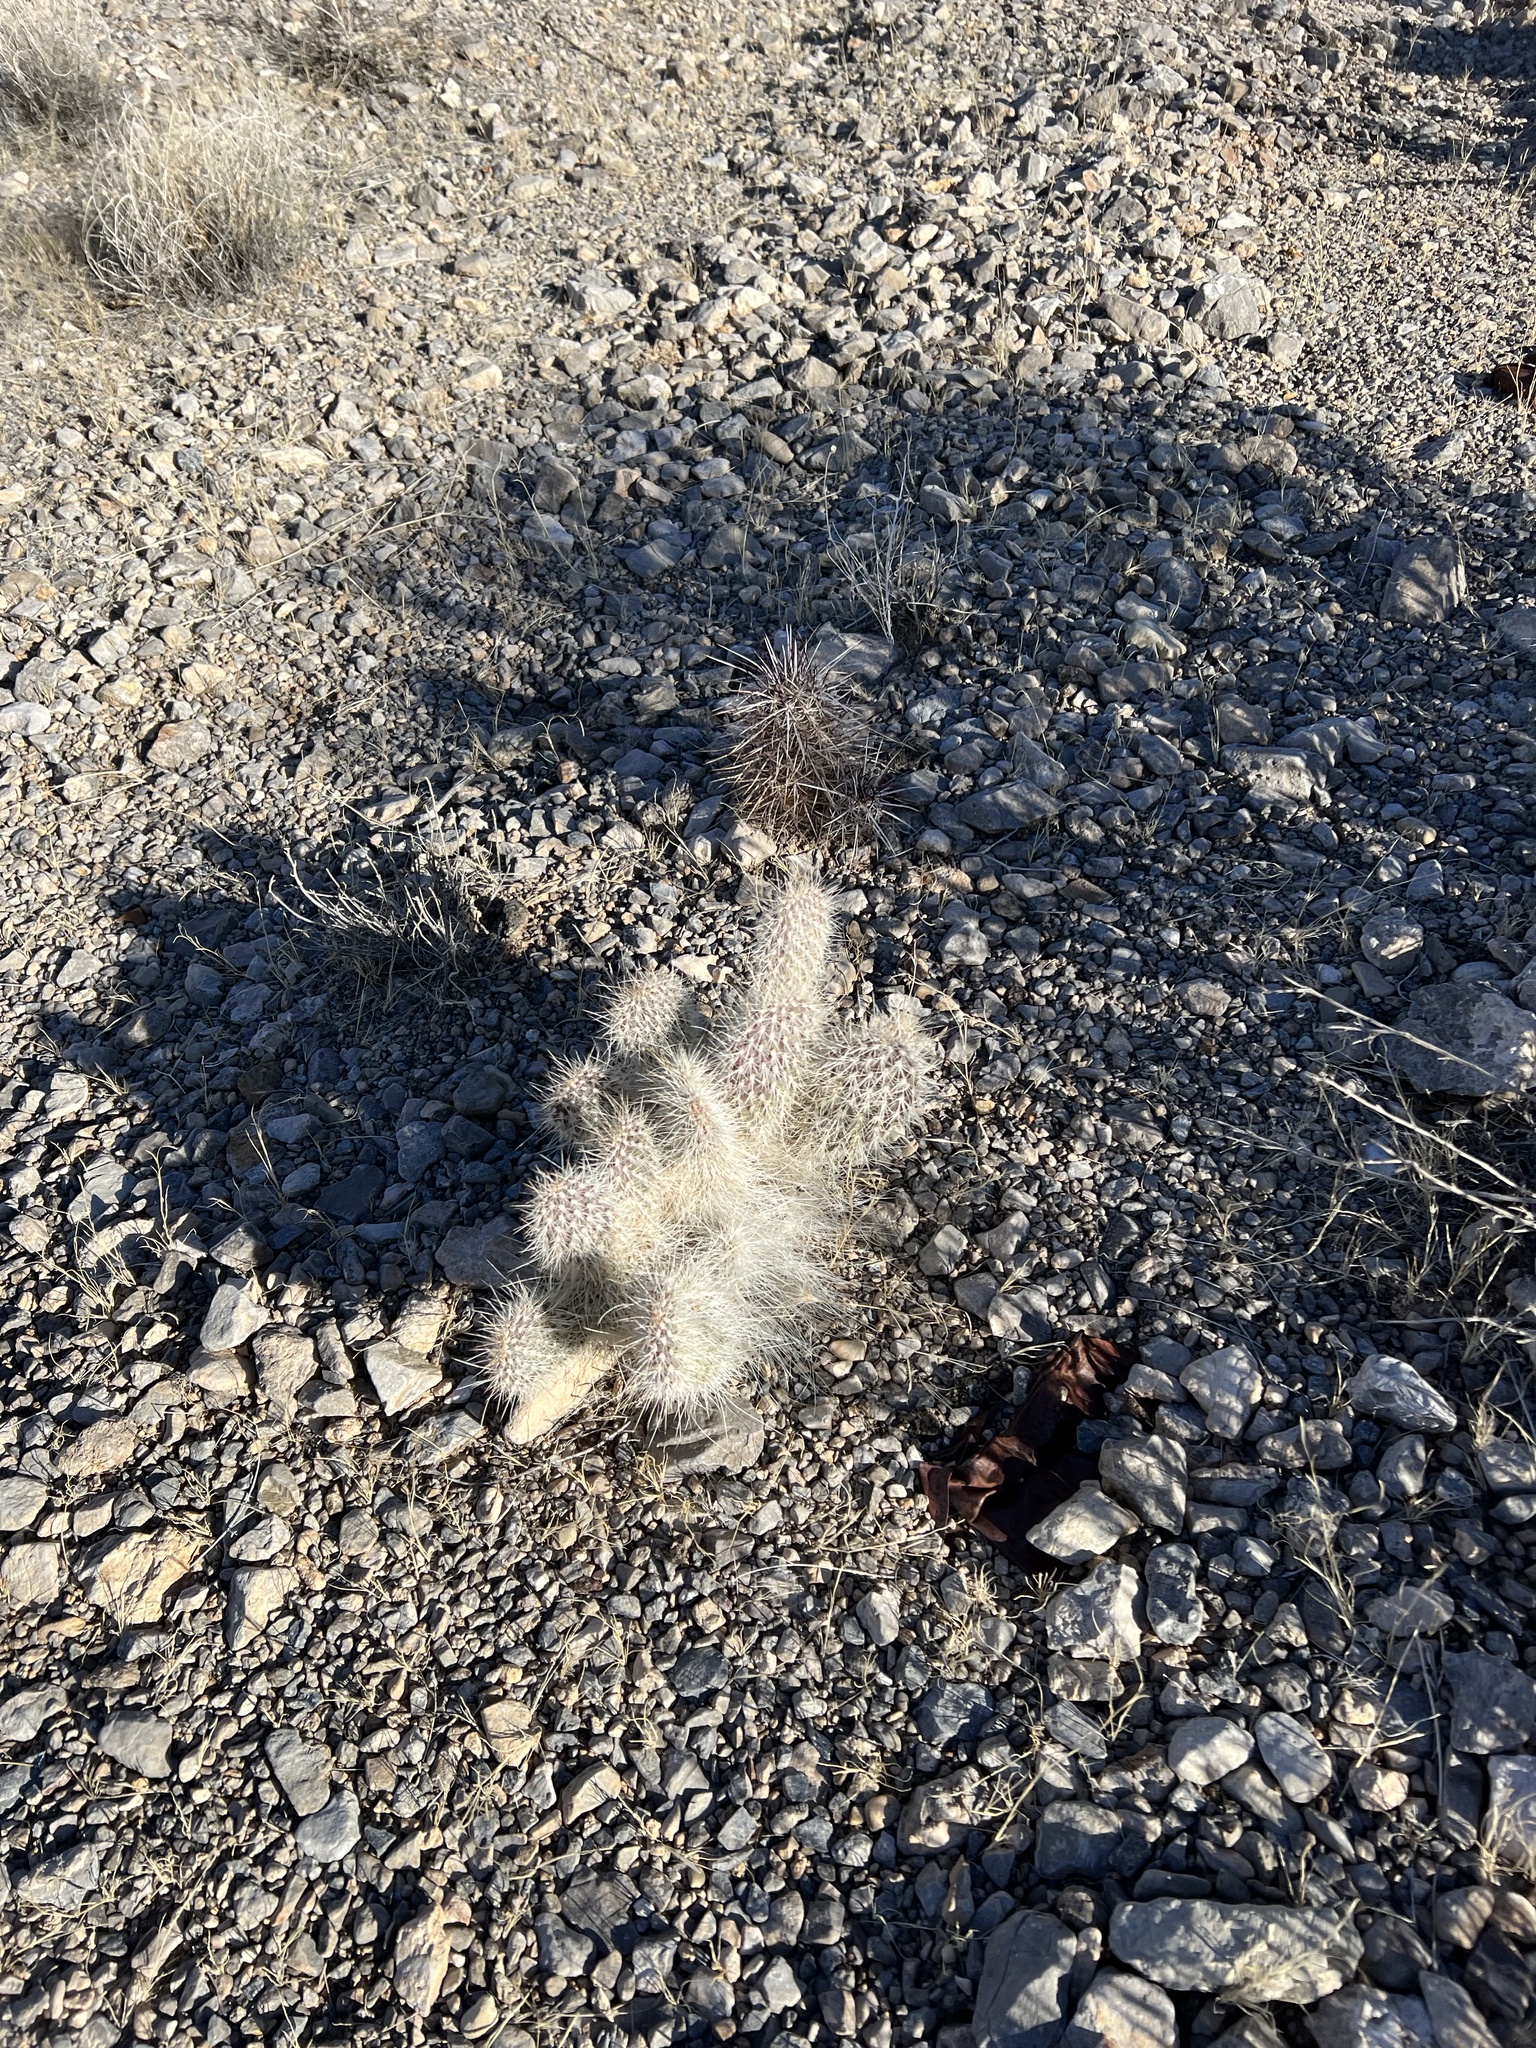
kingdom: Plantae
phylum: Tracheophyta
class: Magnoliopsida
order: Caryophyllales
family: Cactaceae
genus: Opuntia
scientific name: Opuntia polyacantha
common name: Plains prickly-pear
